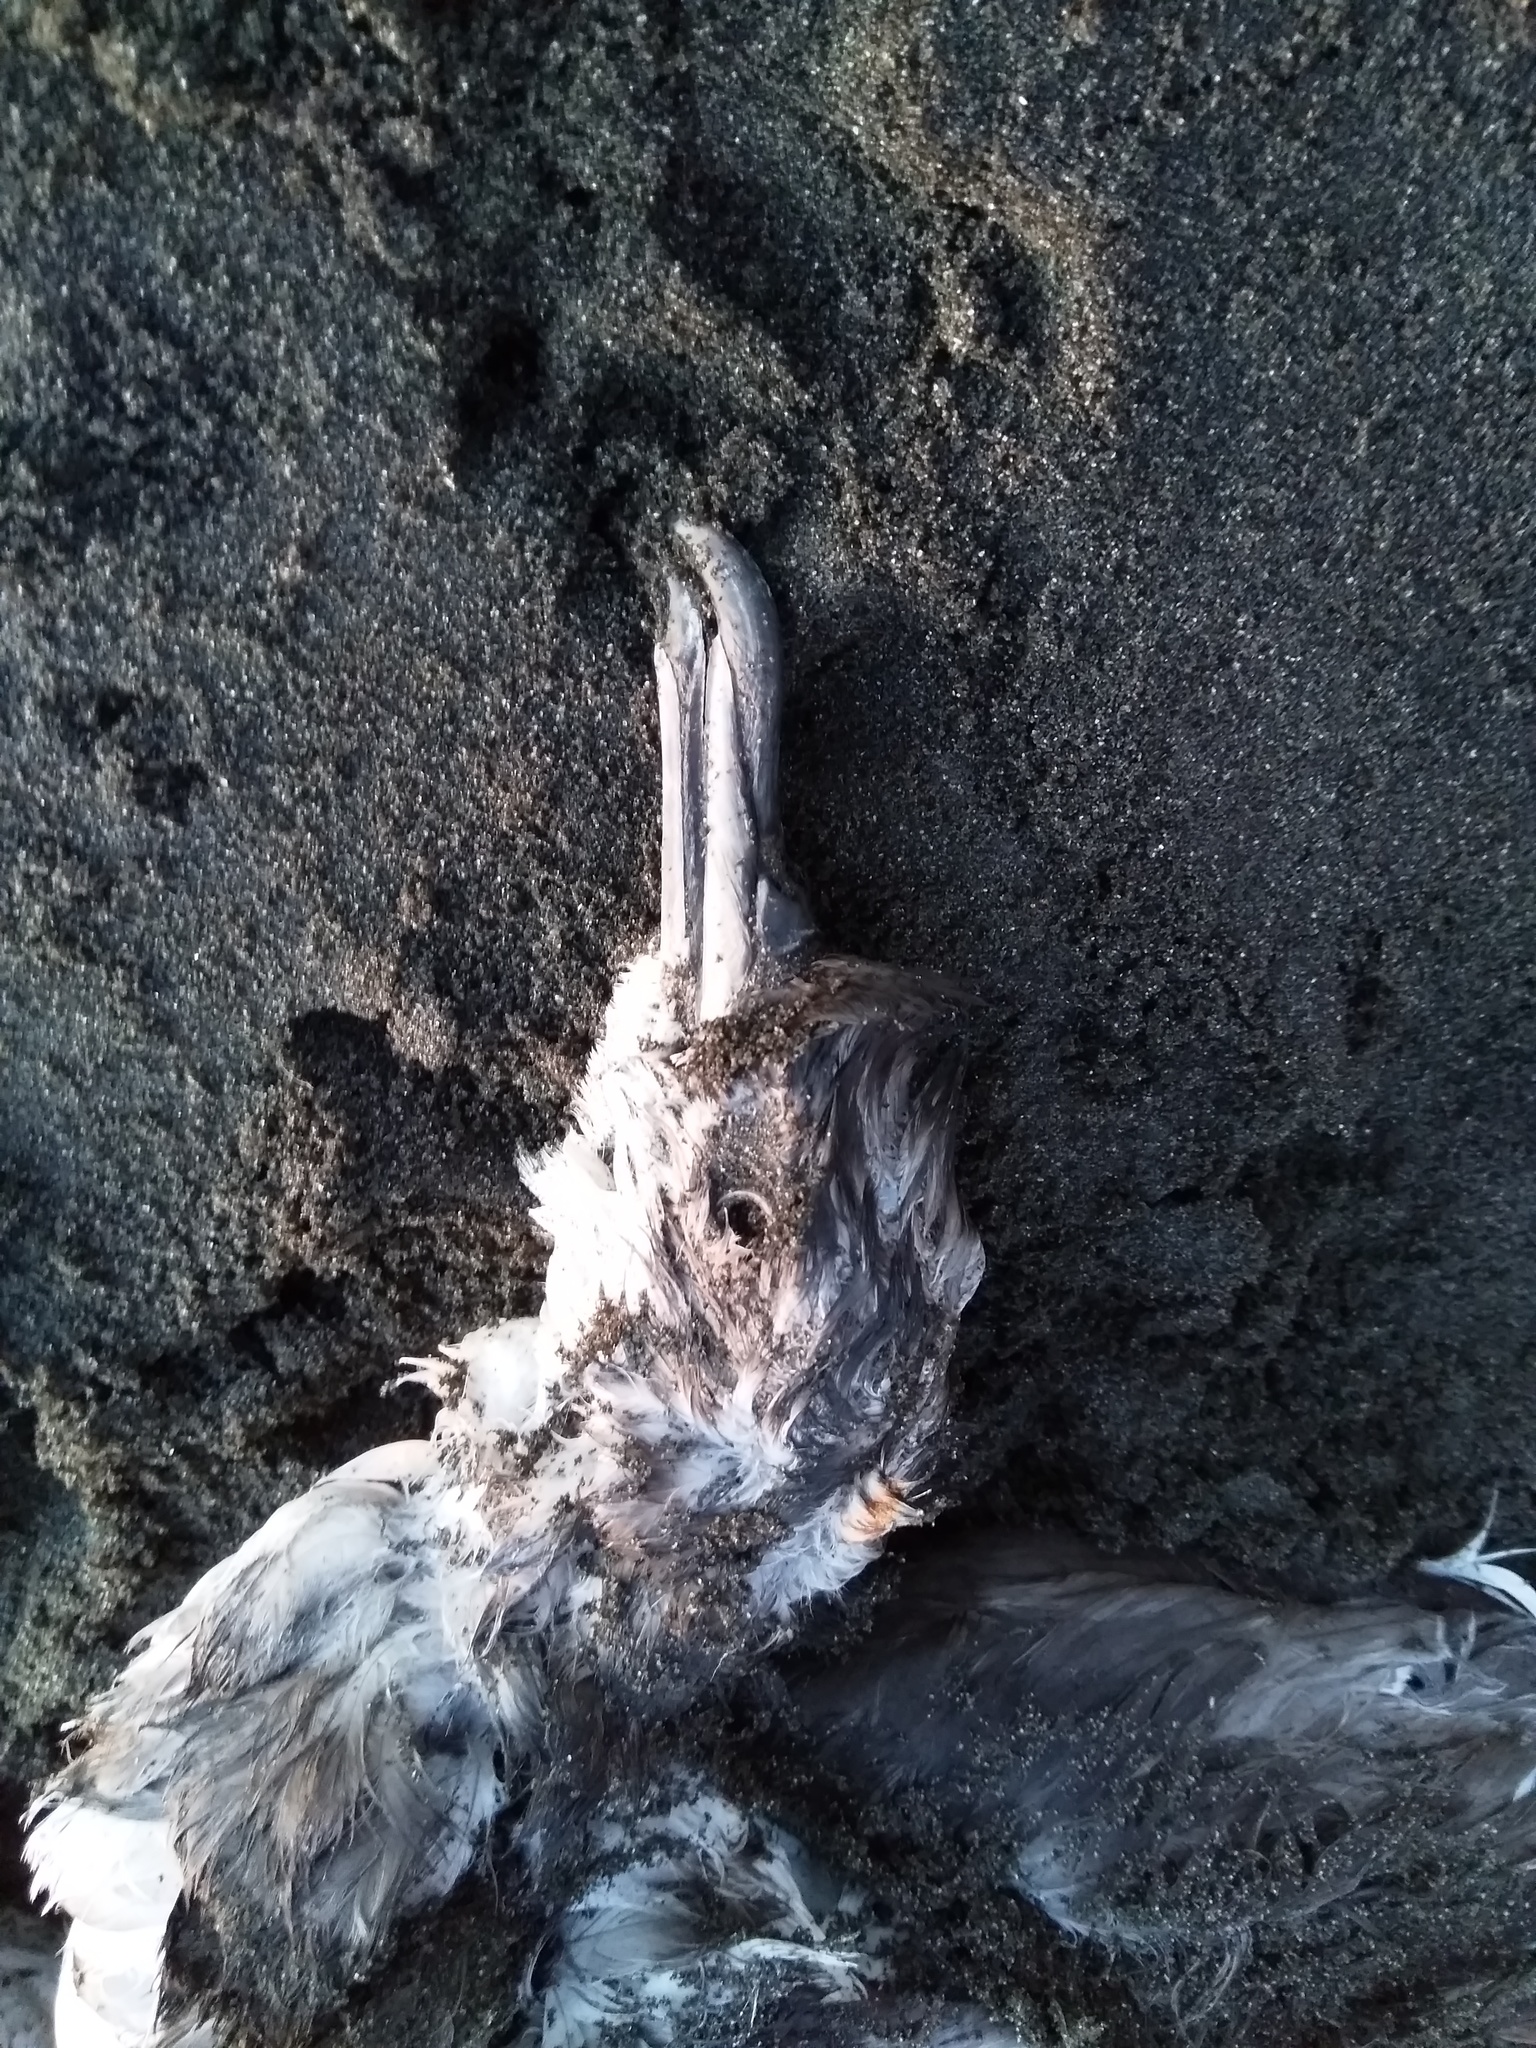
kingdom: Animalia
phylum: Chordata
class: Aves
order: Procellariiformes
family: Procellariidae
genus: Puffinus
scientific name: Puffinus gavia
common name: Fluttering shearwater
